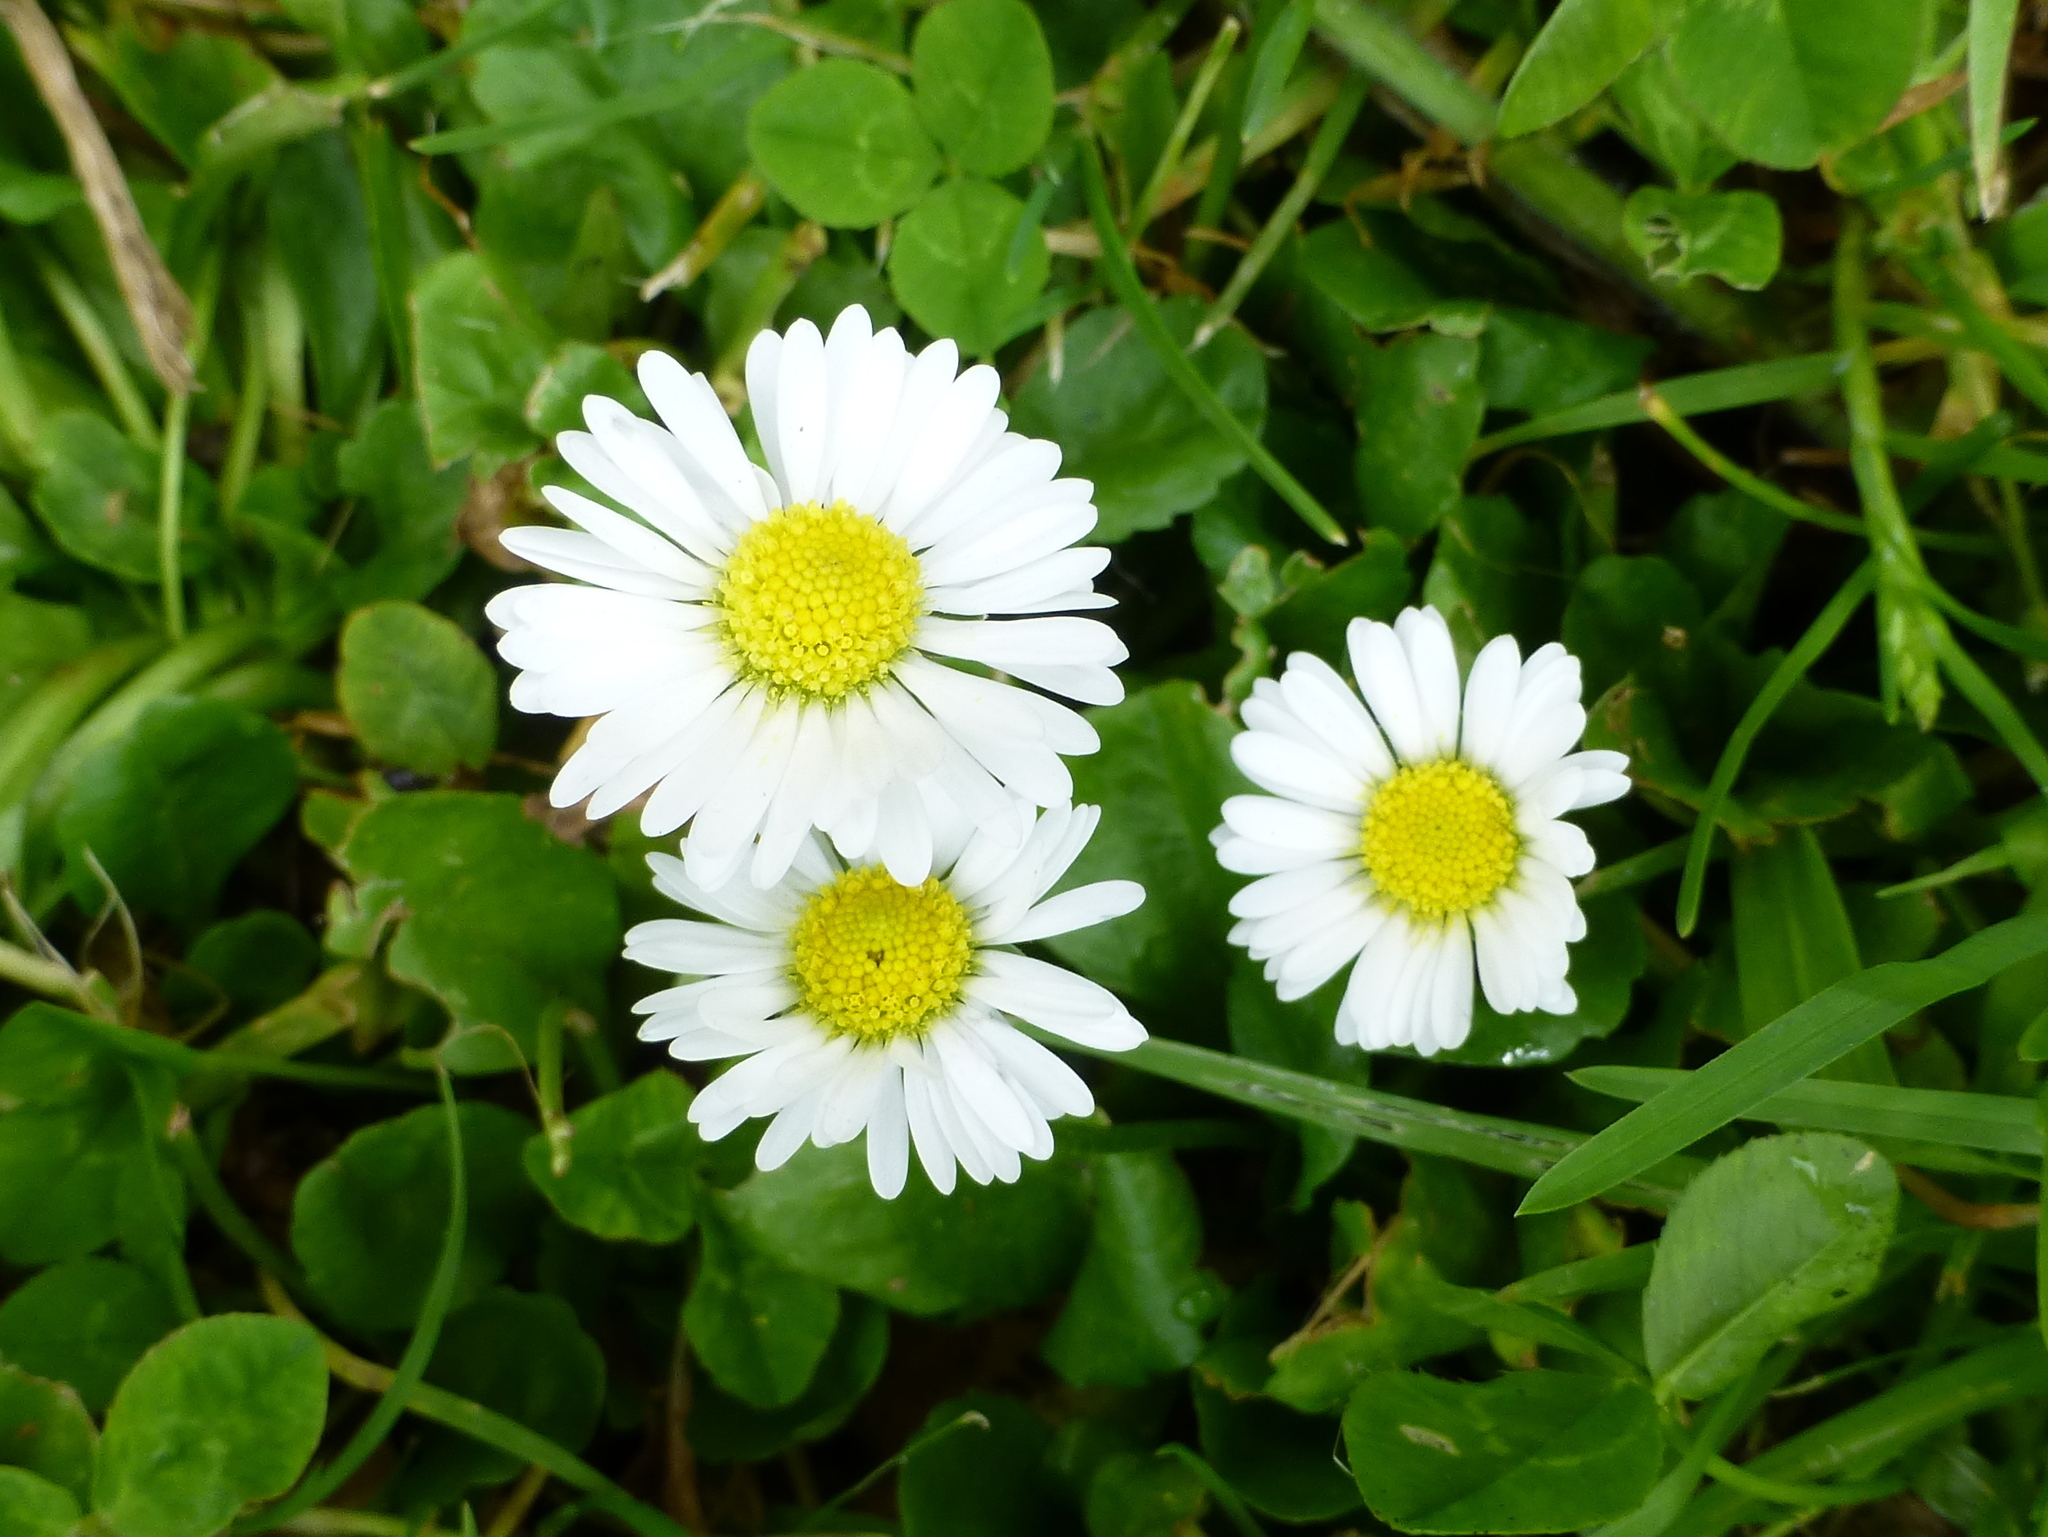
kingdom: Plantae
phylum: Tracheophyta
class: Magnoliopsida
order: Asterales
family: Asteraceae
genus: Bellis
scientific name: Bellis perennis
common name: Lawndaisy
